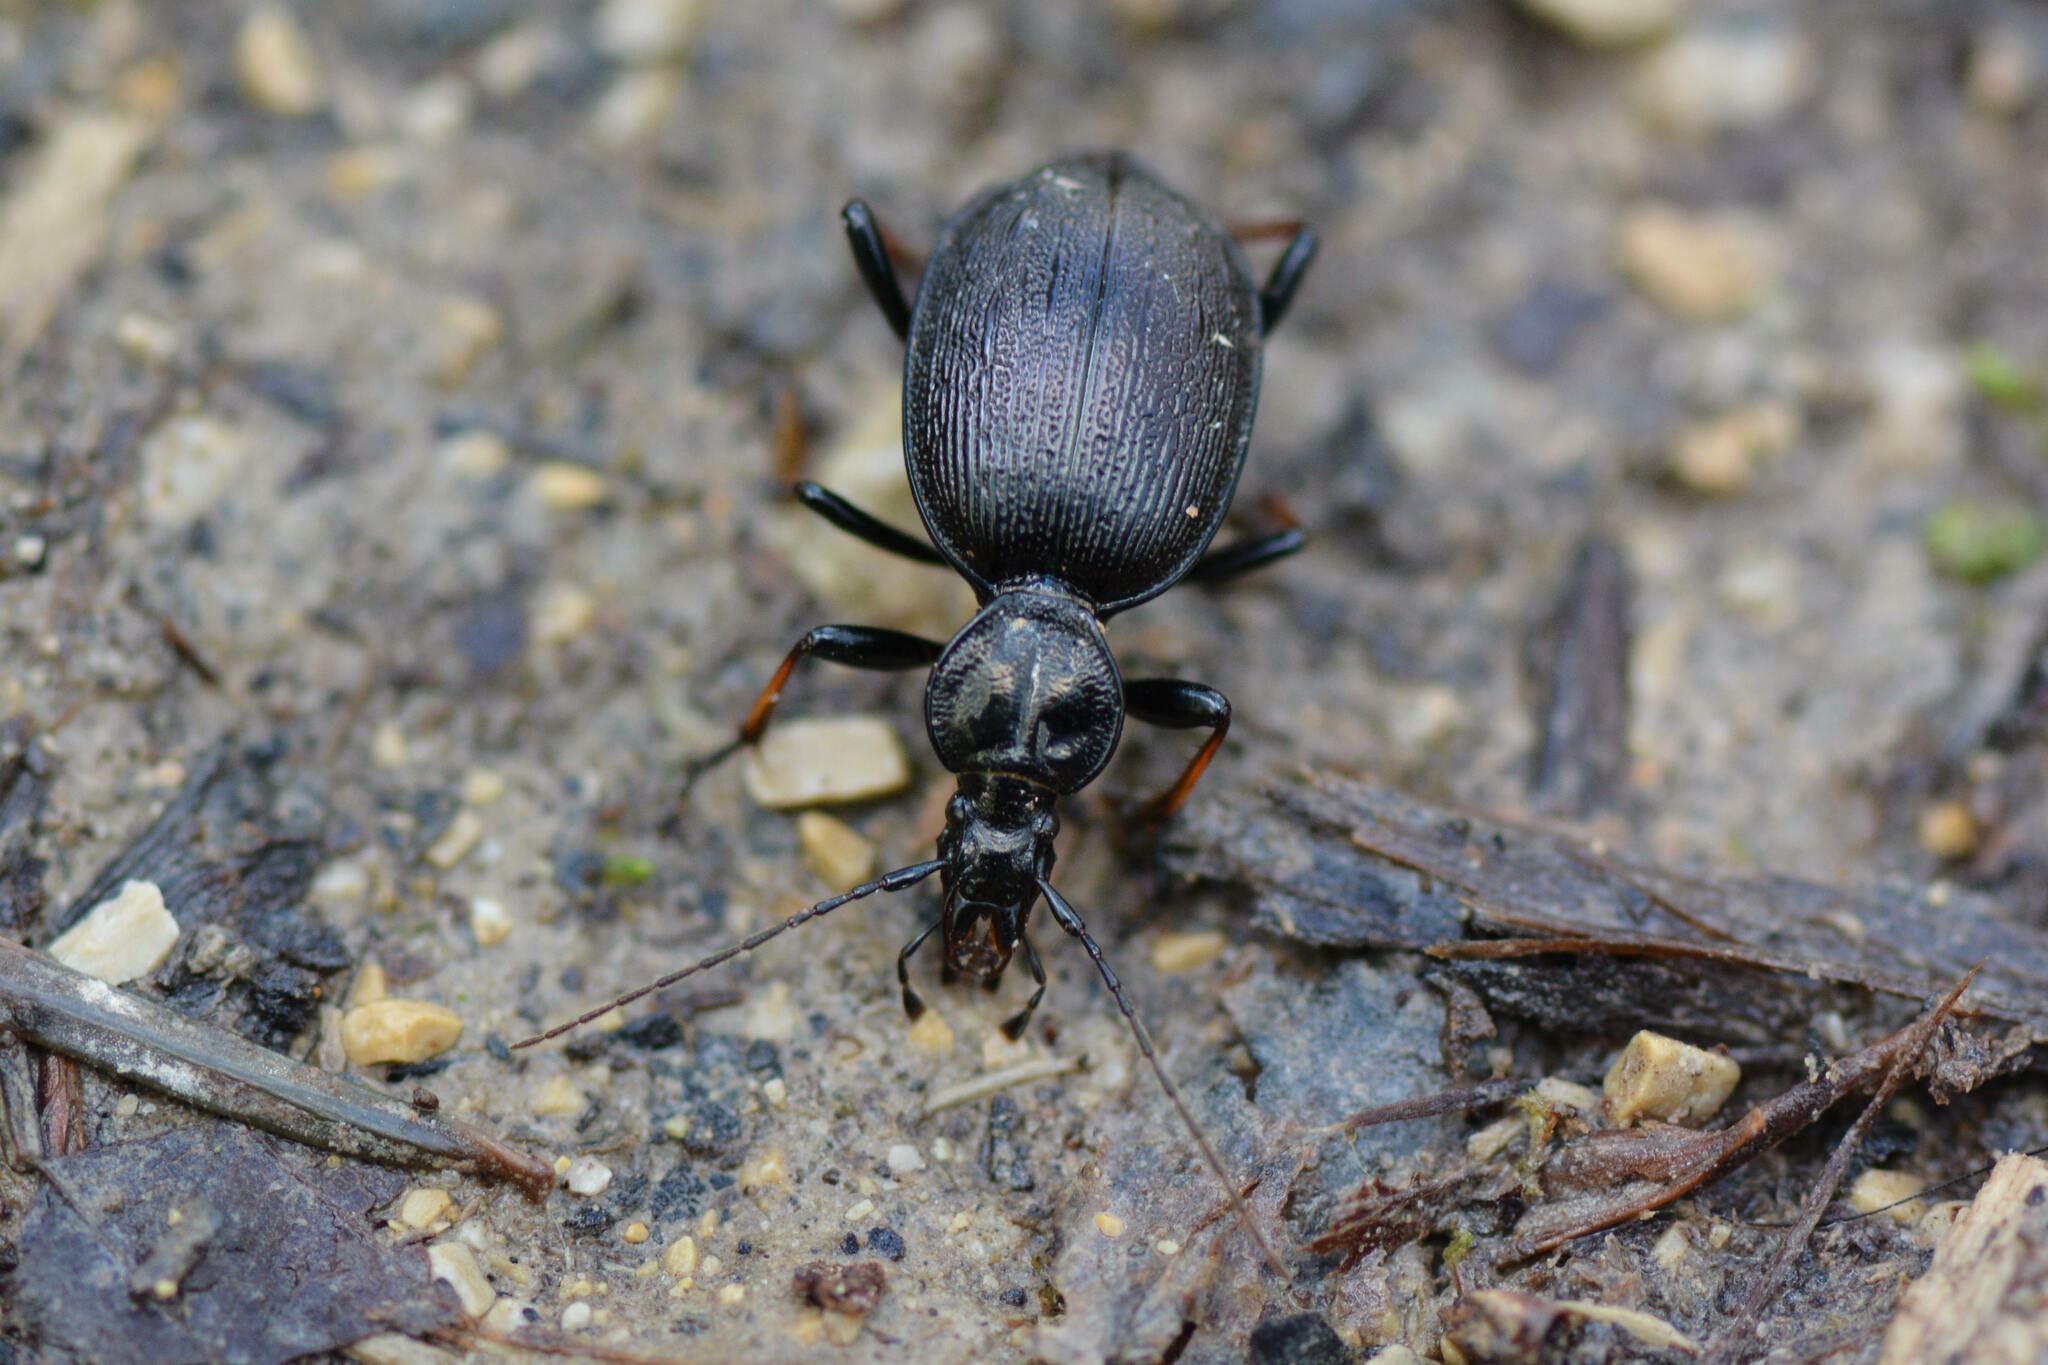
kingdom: Animalia
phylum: Arthropoda
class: Insecta
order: Coleoptera
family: Carabidae
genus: Cychrus
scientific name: Cychrus attenuatus
